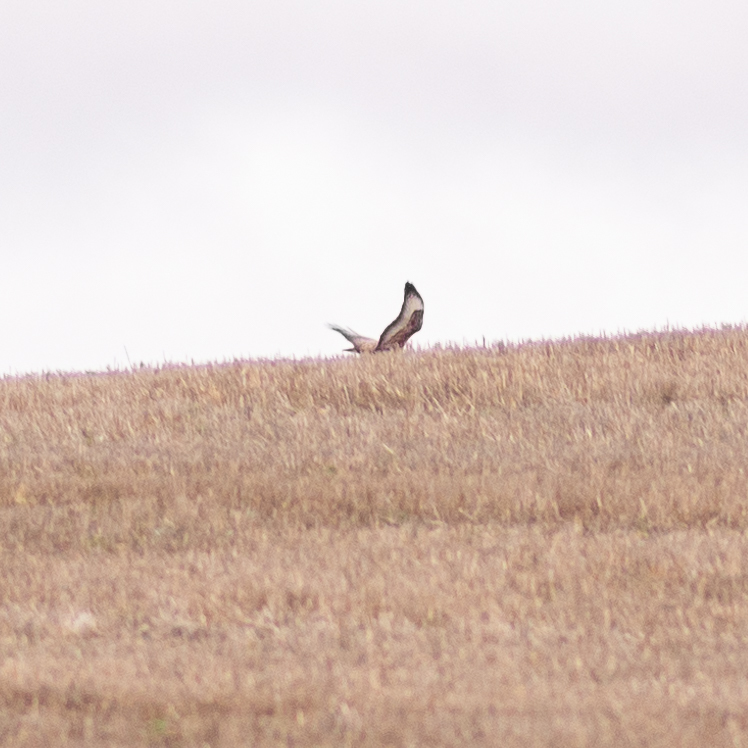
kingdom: Animalia
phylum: Chordata
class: Aves
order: Accipitriformes
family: Accipitridae
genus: Buteo
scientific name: Buteo buteo
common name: Common buzzard
